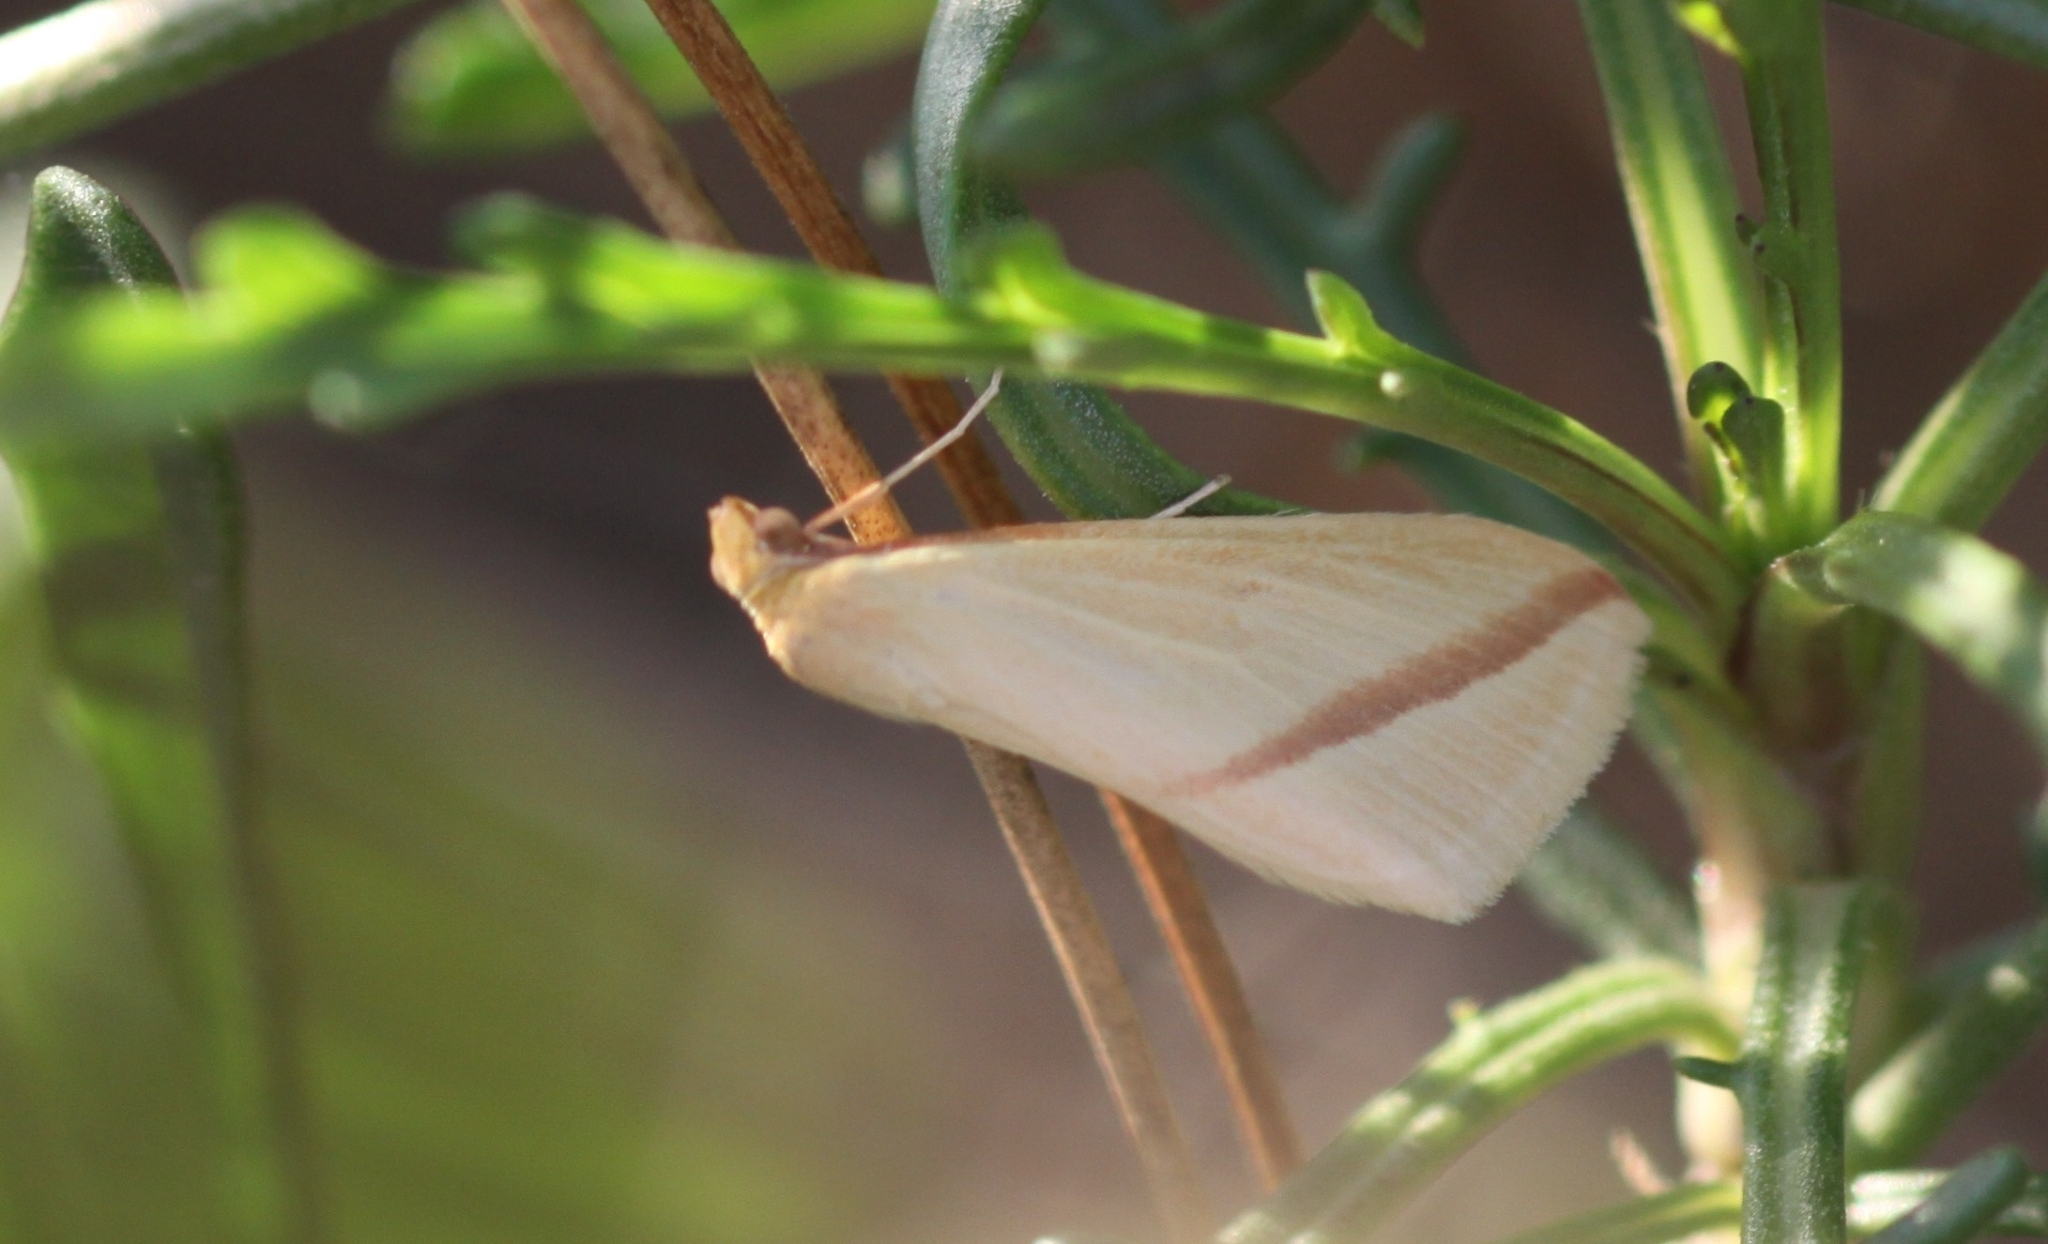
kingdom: Animalia
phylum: Arthropoda
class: Insecta
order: Lepidoptera
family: Geometridae
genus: Rhodometra
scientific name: Rhodometra sacraria
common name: Vestal
